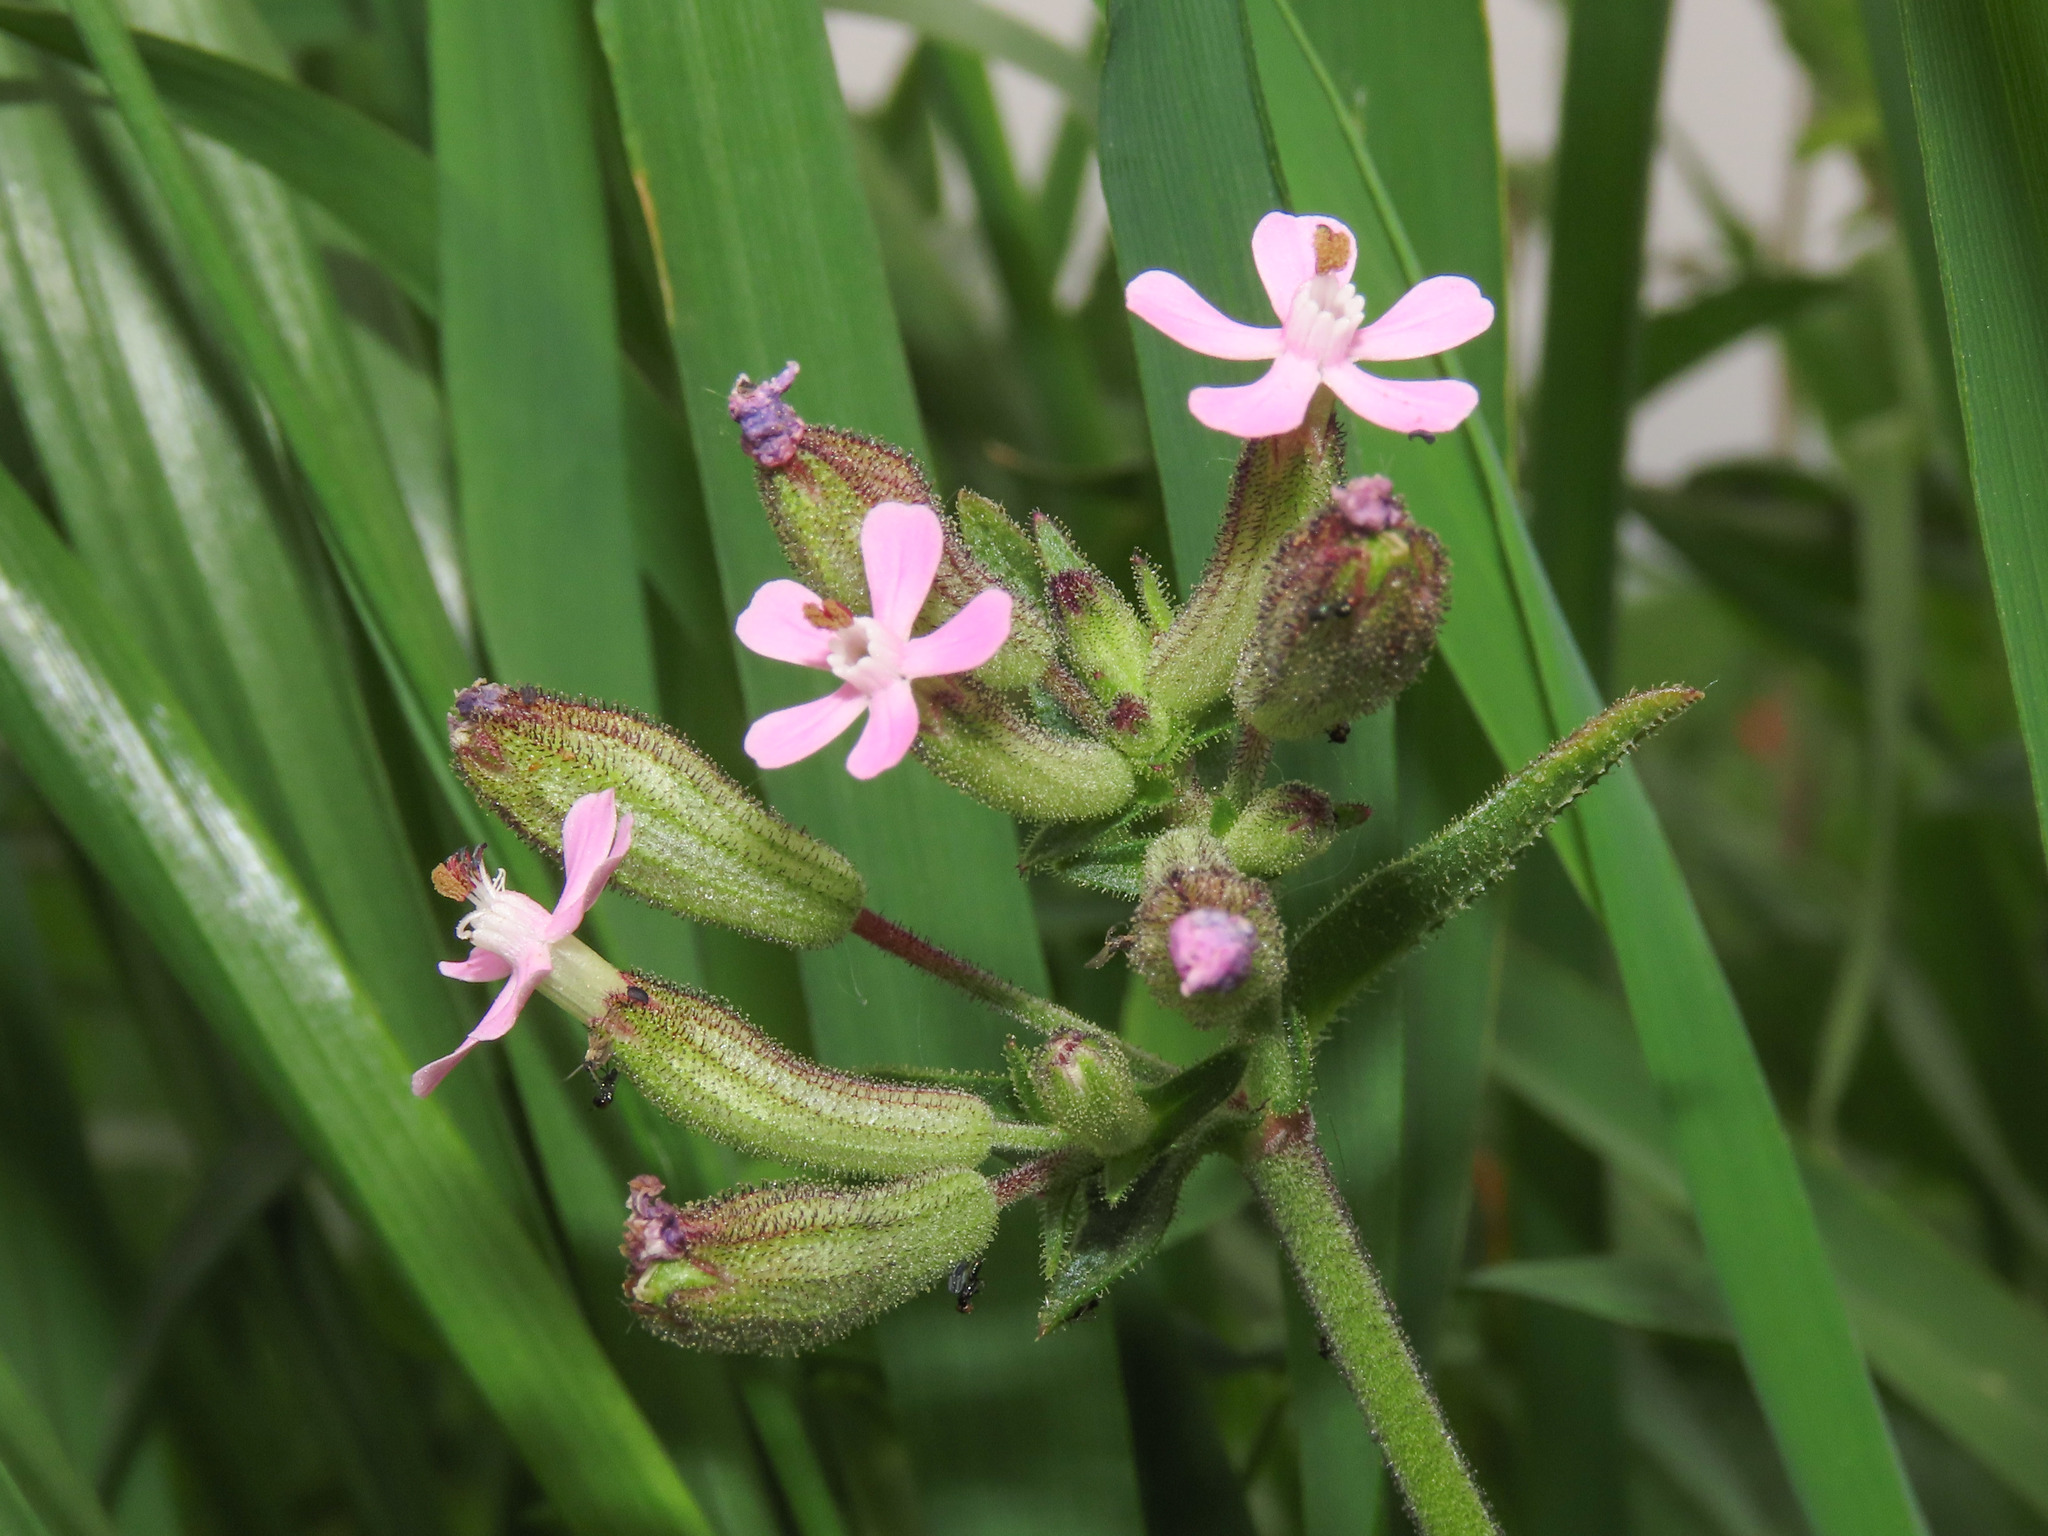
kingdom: Plantae
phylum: Tracheophyta
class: Magnoliopsida
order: Caryophyllales
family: Caryophyllaceae
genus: Silene
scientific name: Silene fuscata
